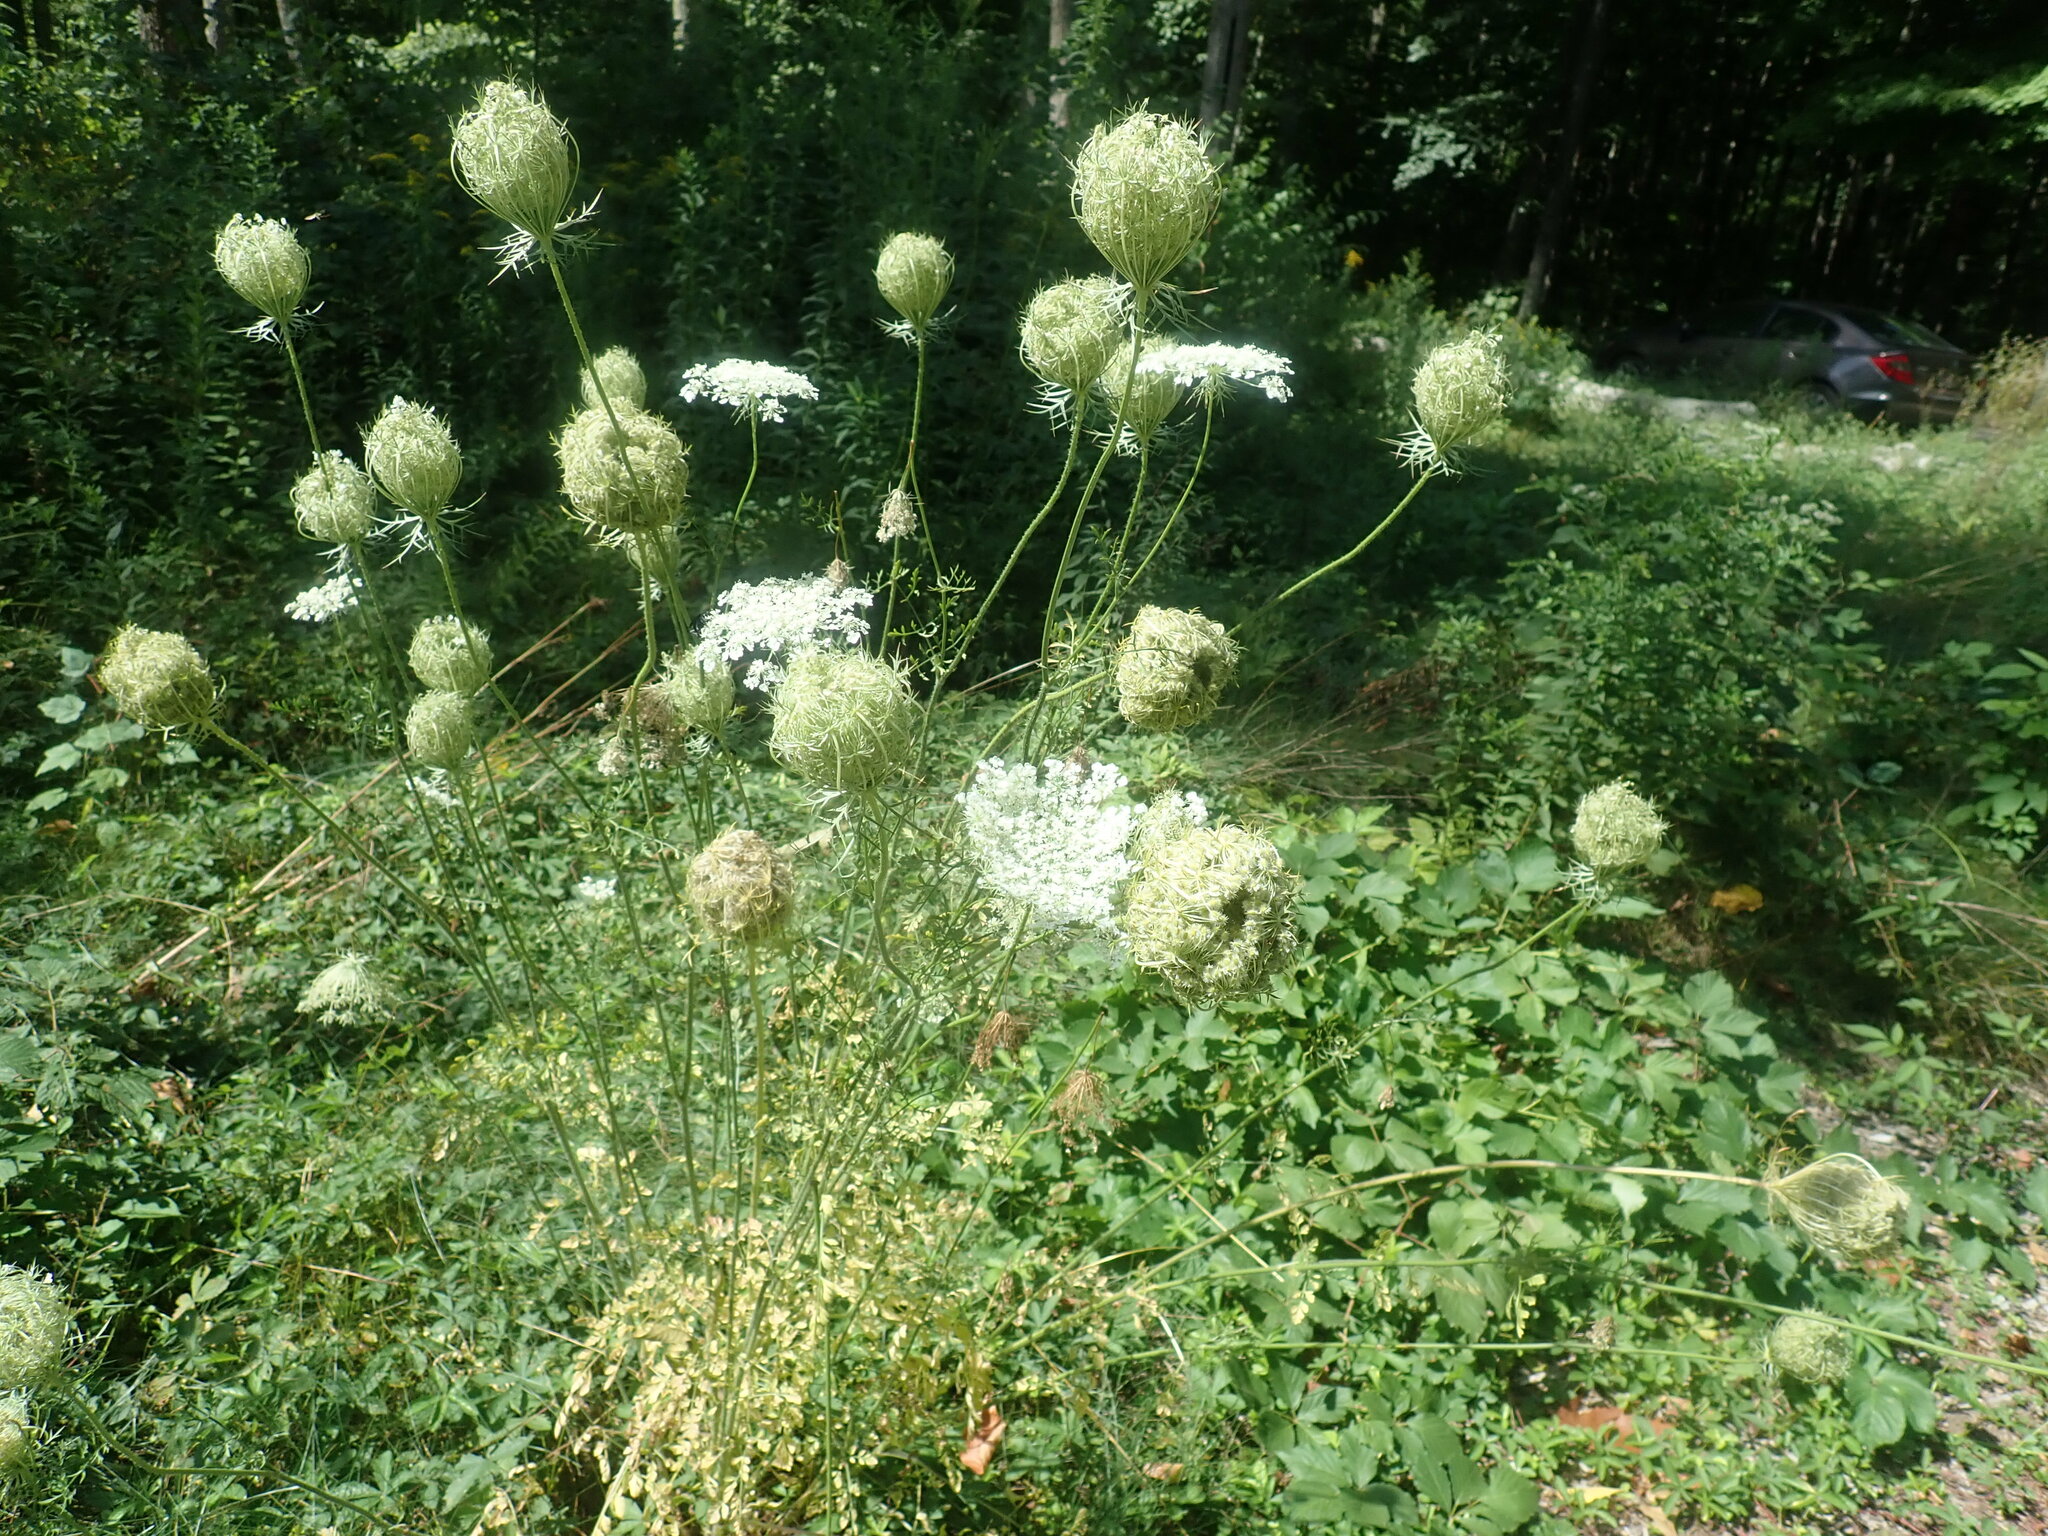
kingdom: Plantae
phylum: Tracheophyta
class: Magnoliopsida
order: Apiales
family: Apiaceae
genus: Daucus
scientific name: Daucus carota
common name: Wild carrot
